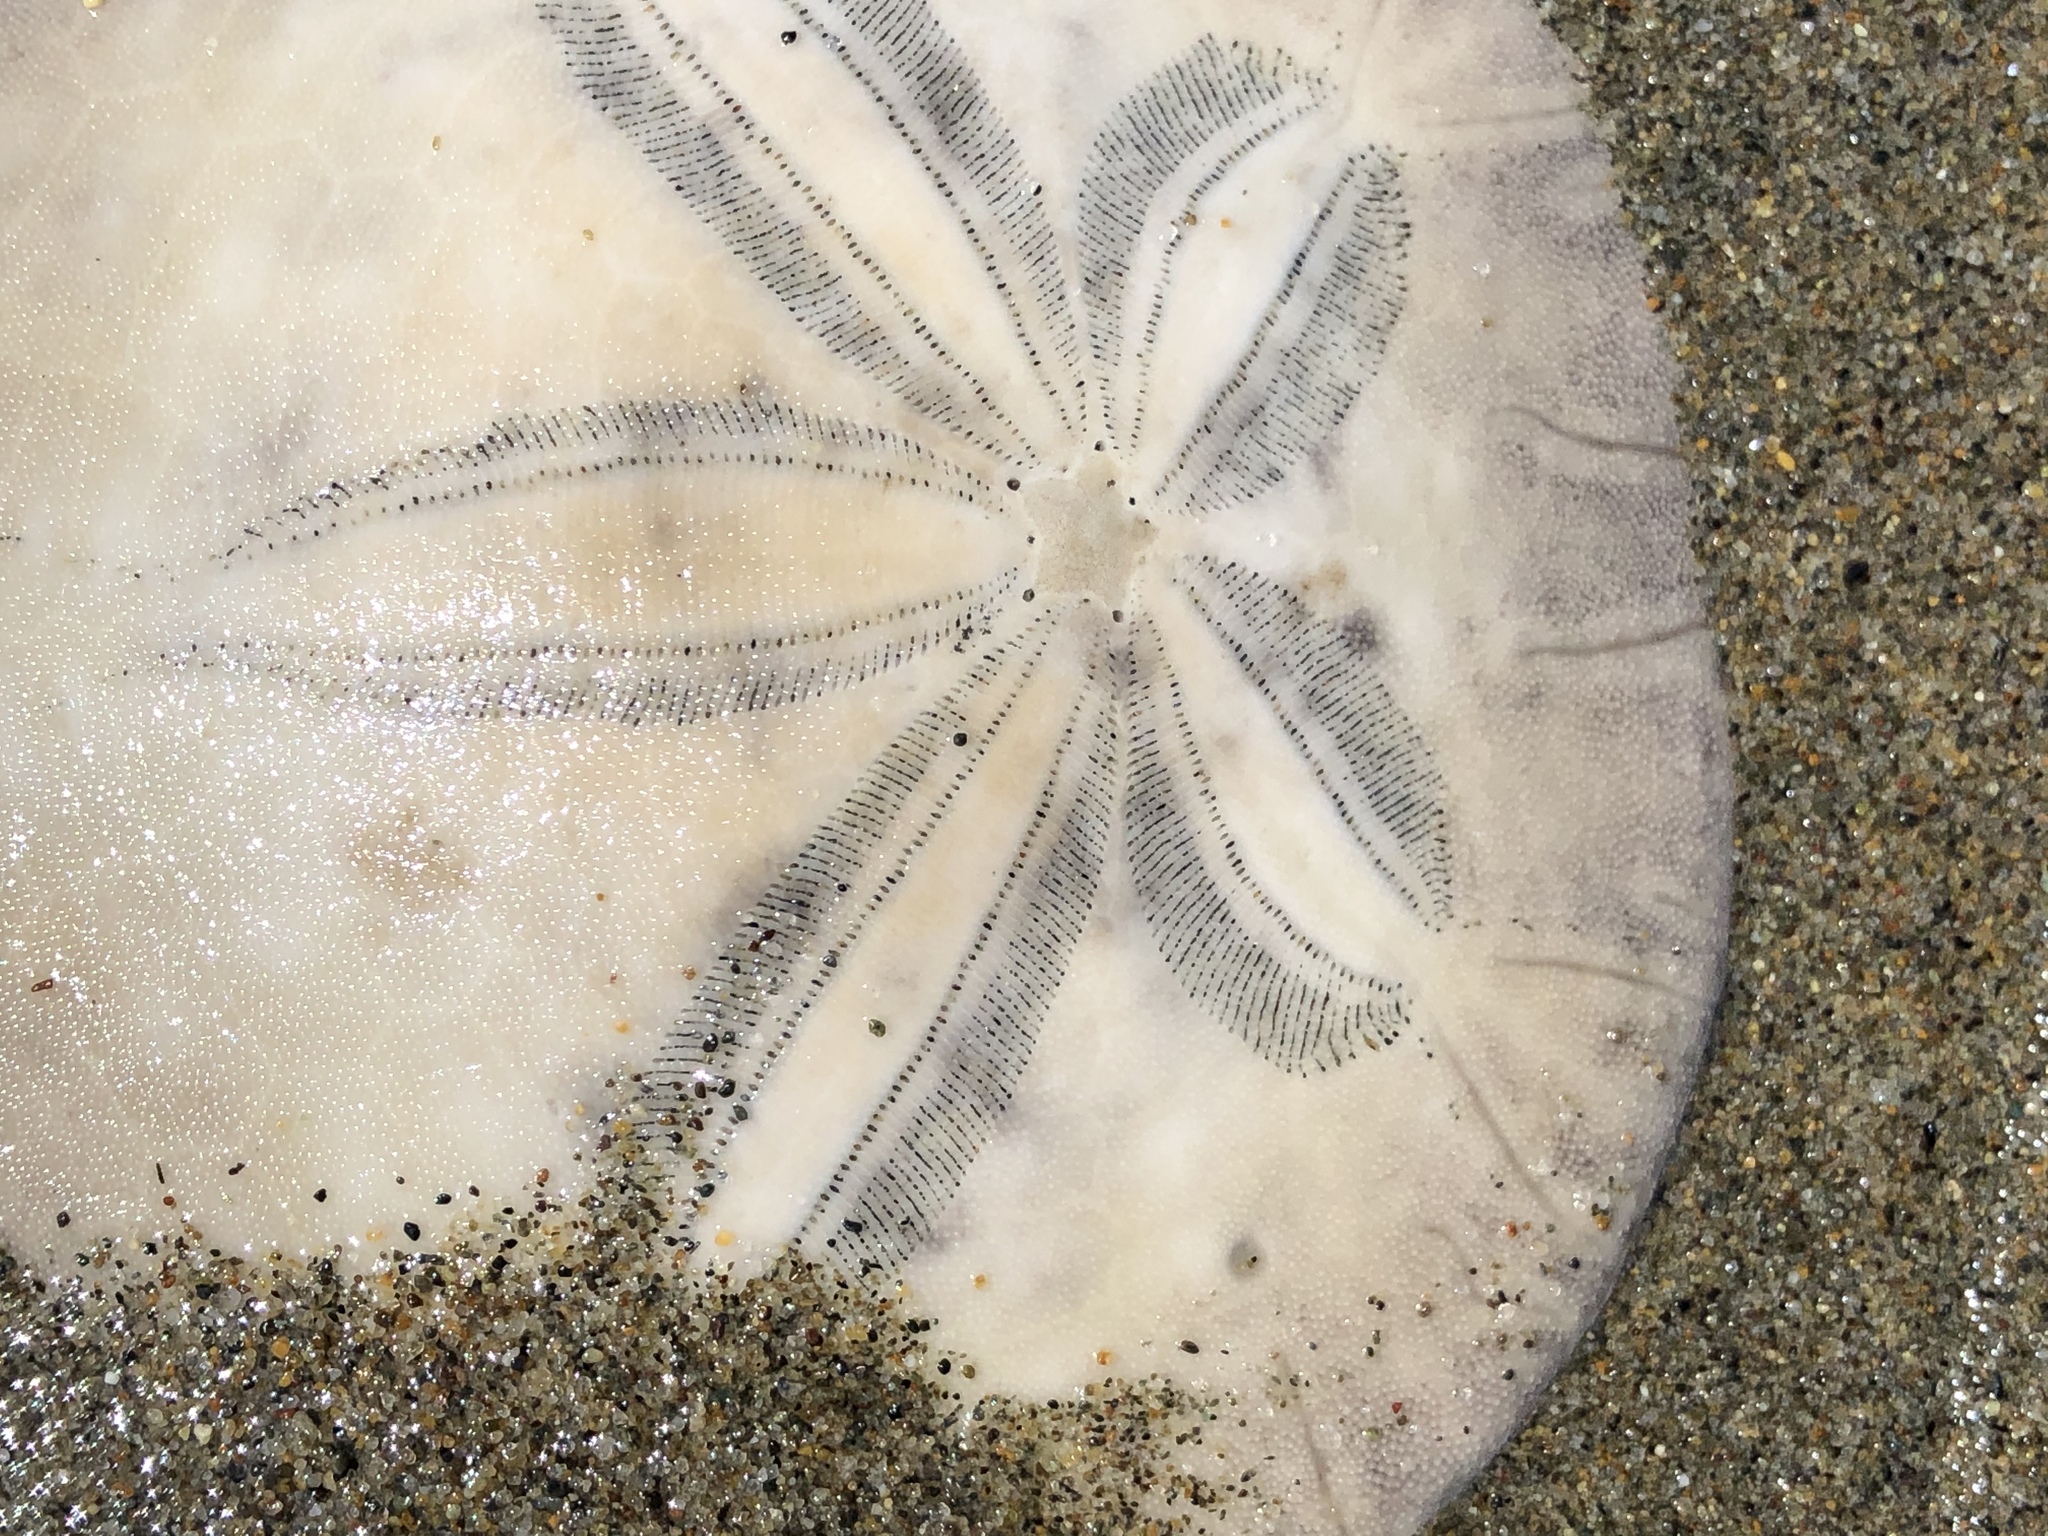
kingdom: Animalia
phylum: Echinodermata
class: Echinoidea
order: Echinolampadacea
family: Dendrasteridae
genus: Dendraster
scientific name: Dendraster excentricus
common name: Eccentric sand dollar sea urchin
